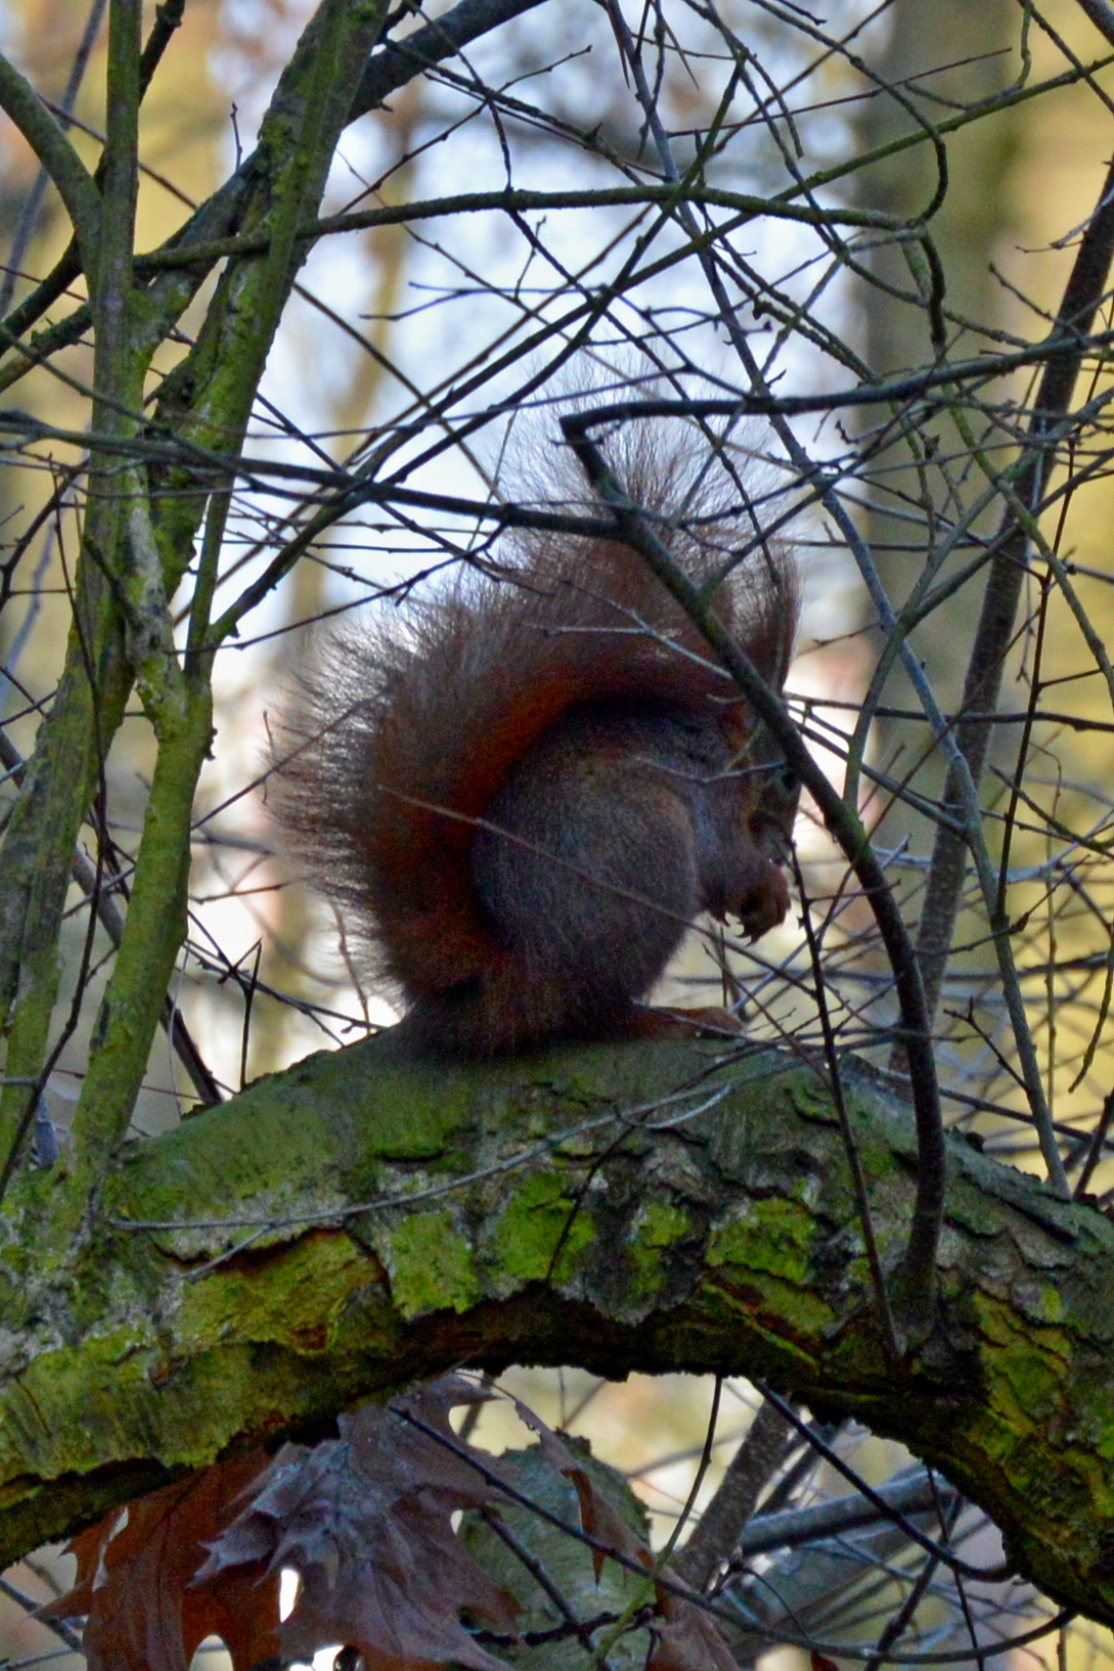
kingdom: Animalia
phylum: Chordata
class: Mammalia
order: Rodentia
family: Sciuridae
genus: Sciurus
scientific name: Sciurus vulgaris
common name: Eurasian red squirrel
